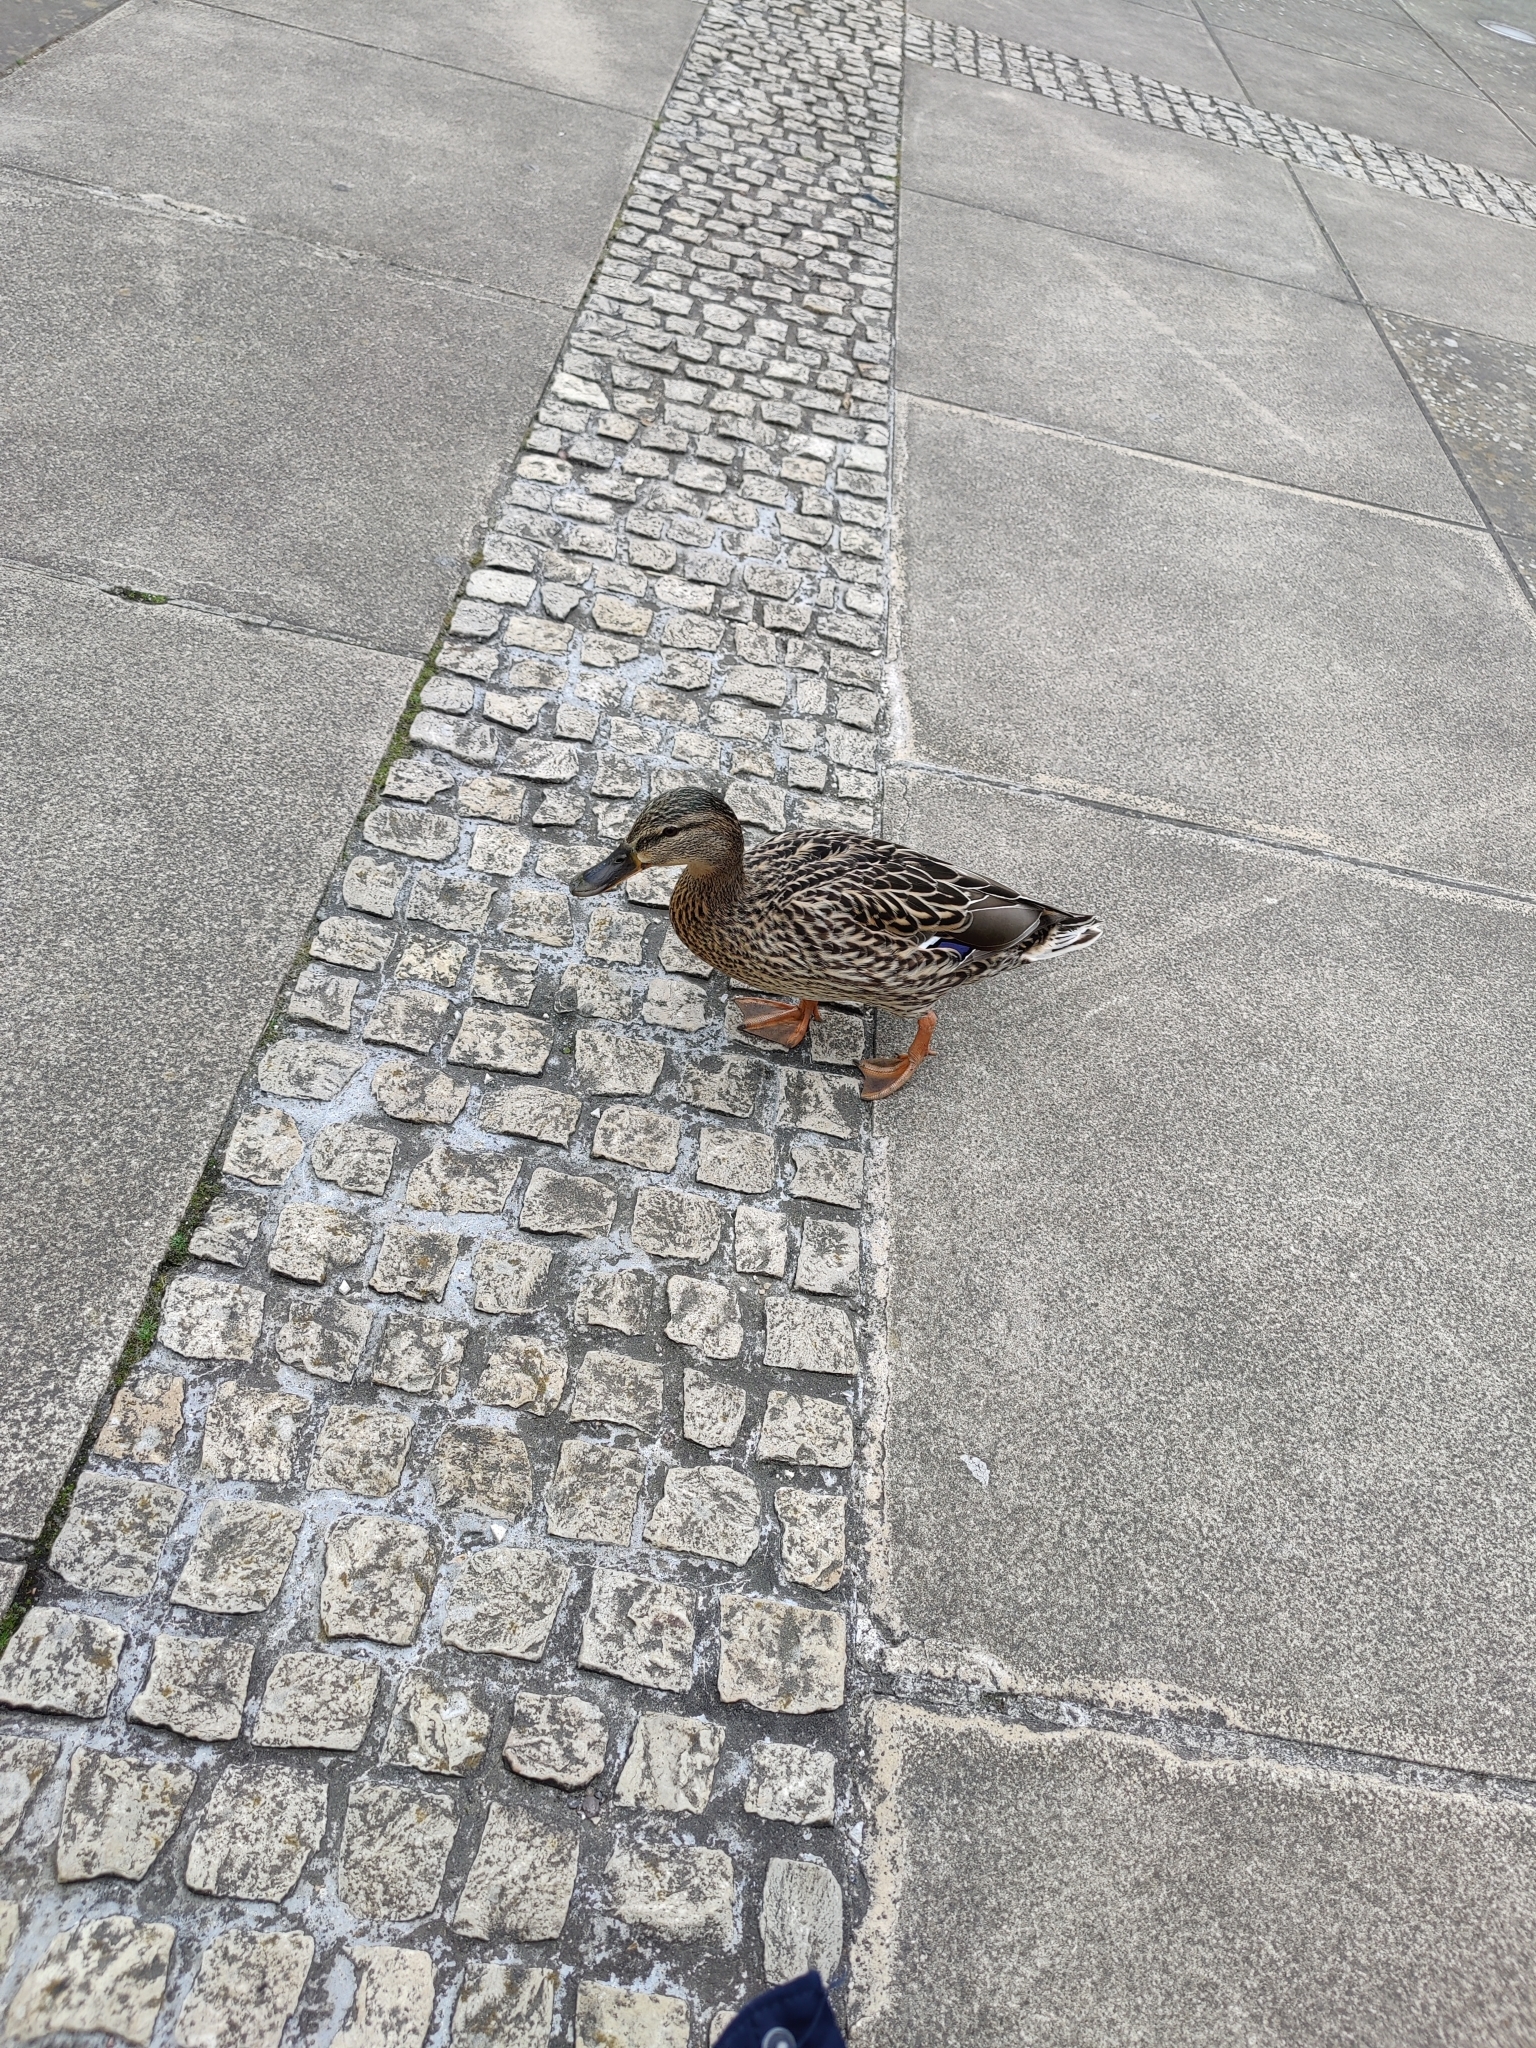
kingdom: Animalia
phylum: Chordata
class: Aves
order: Anseriformes
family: Anatidae
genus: Anas
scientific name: Anas platyrhynchos
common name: Mallard
